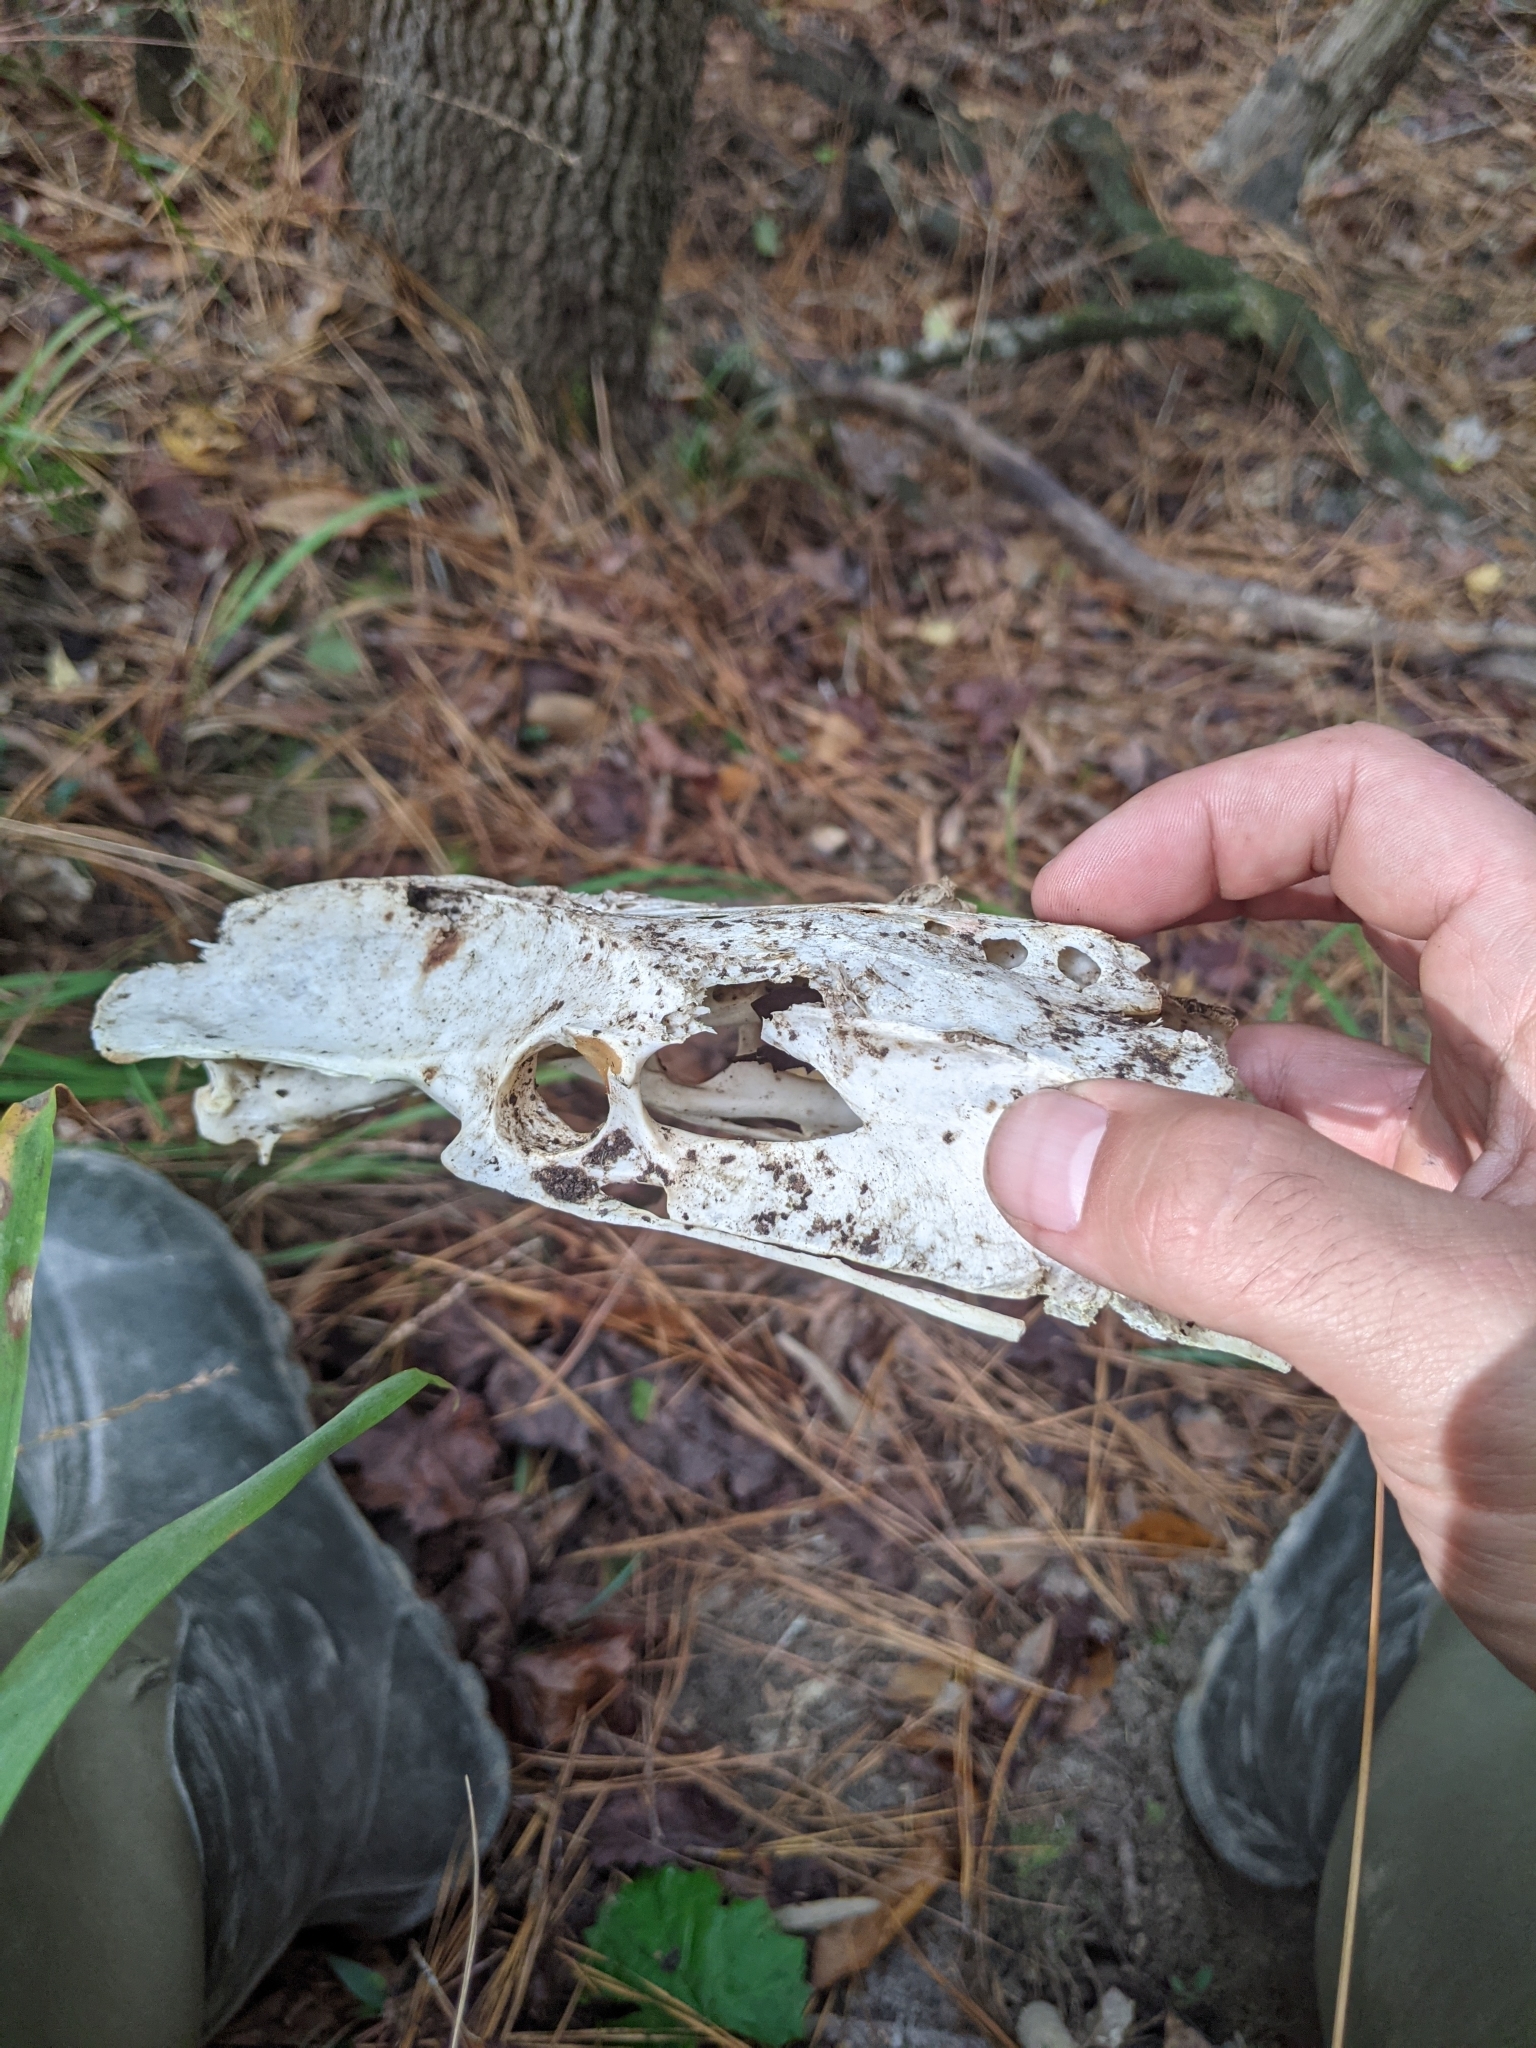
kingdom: Animalia
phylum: Chordata
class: Aves
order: Galliformes
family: Phasianidae
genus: Meleagris
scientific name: Meleagris gallopavo
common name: Wild turkey
